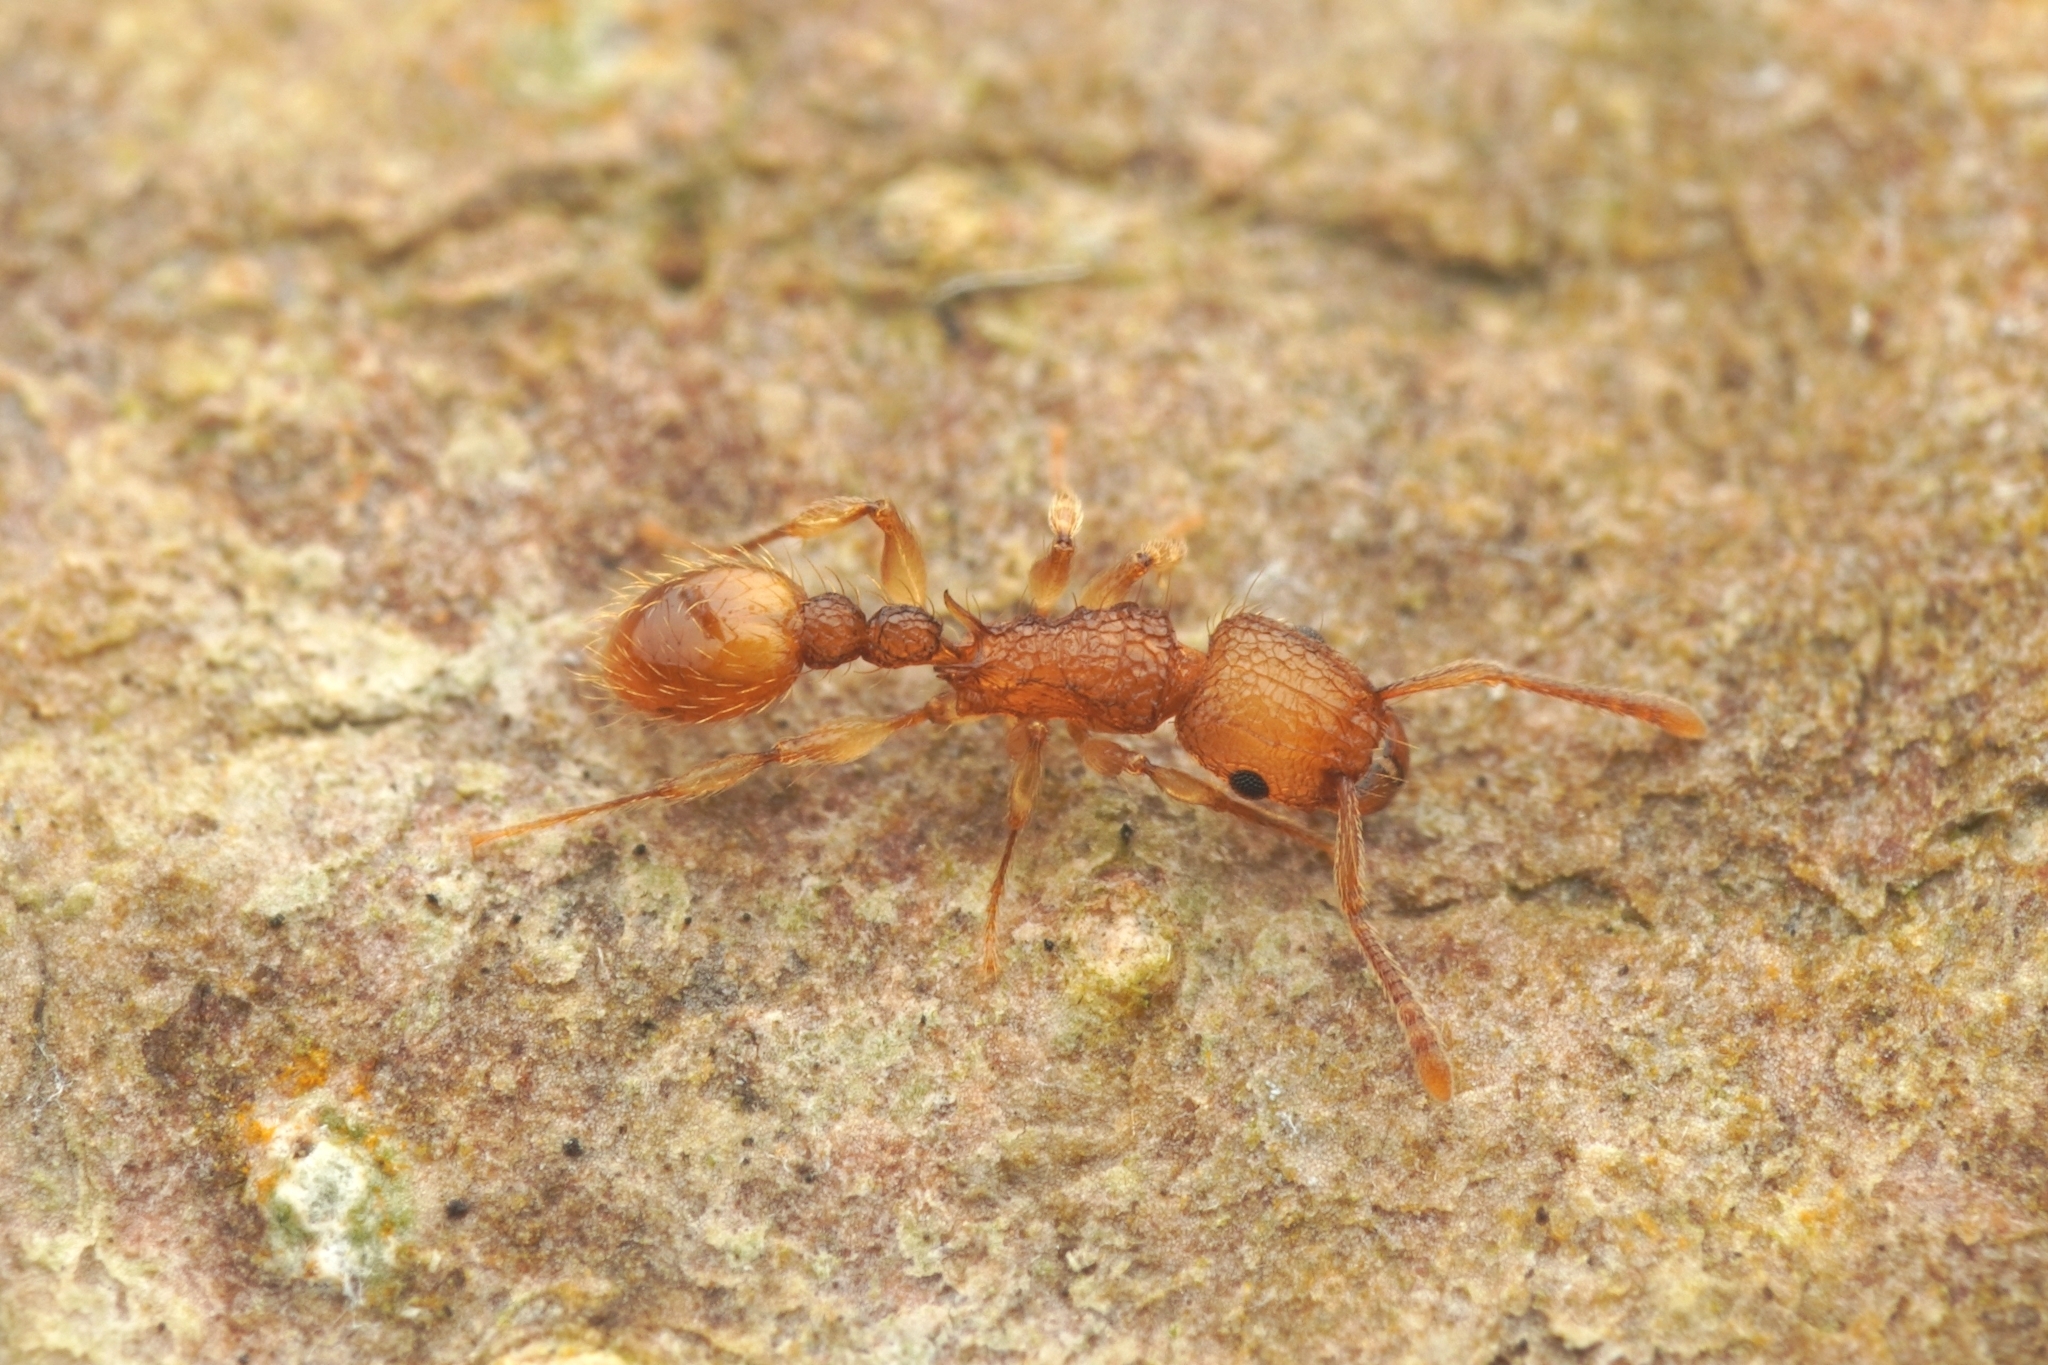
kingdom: Animalia
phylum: Arthropoda
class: Insecta
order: Hymenoptera
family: Formicidae
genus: Tetramorium
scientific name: Tetramorium nipponense
